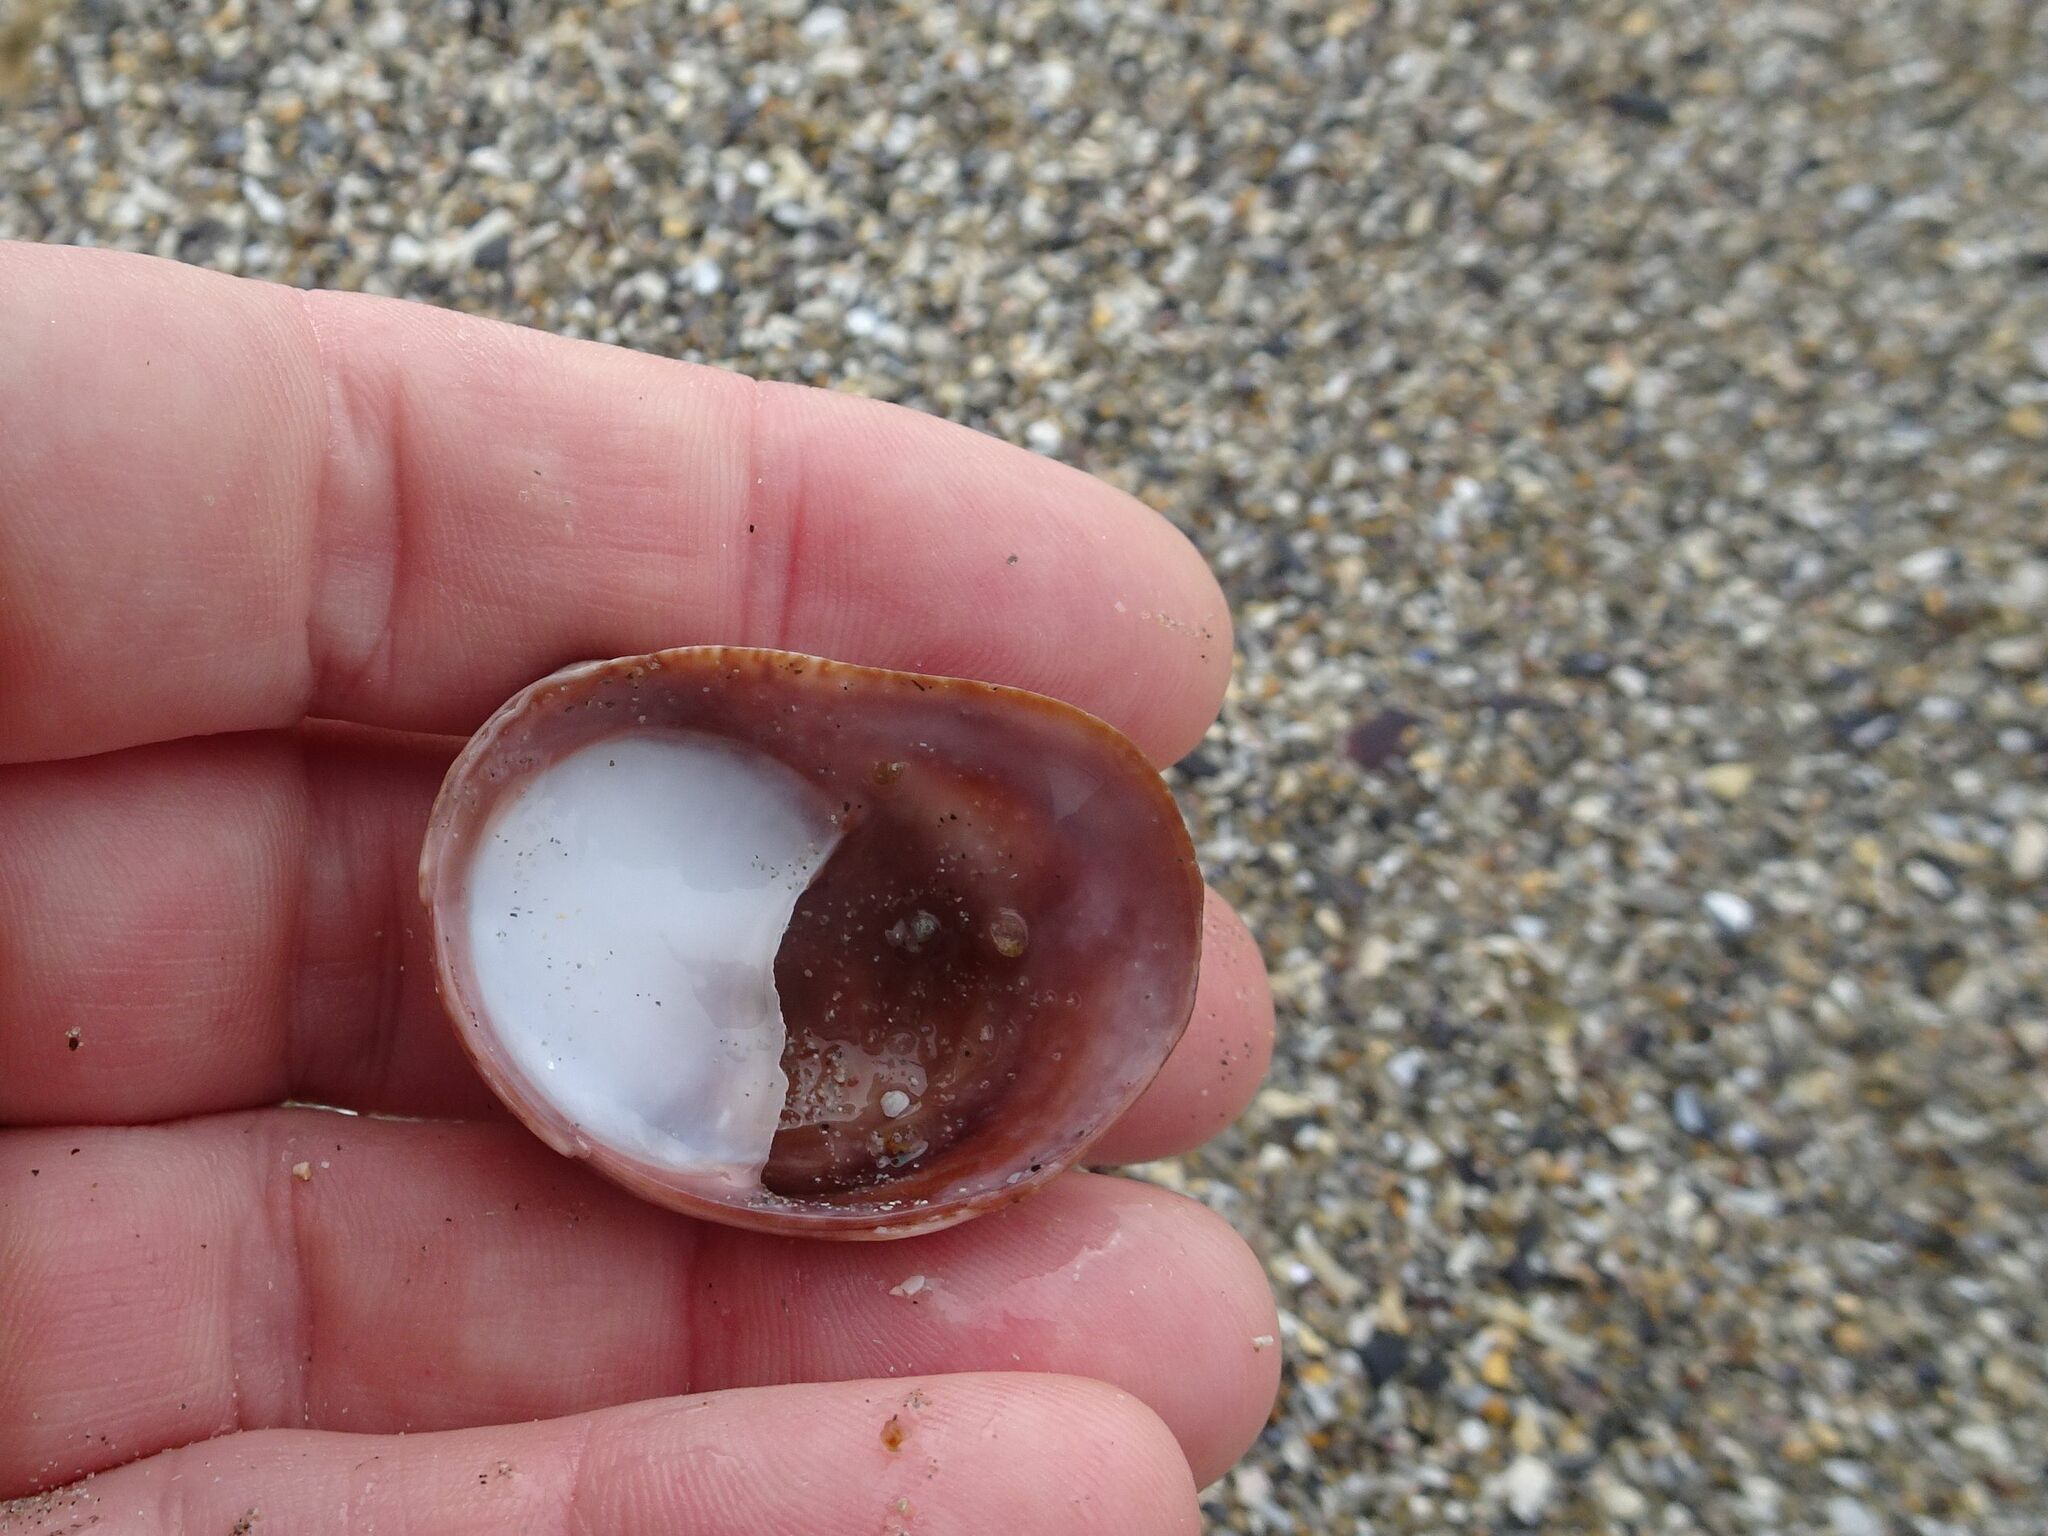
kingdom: Animalia
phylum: Mollusca
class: Gastropoda
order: Littorinimorpha
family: Calyptraeidae
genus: Crepidula
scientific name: Crepidula fornicata
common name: Slipper limpet
